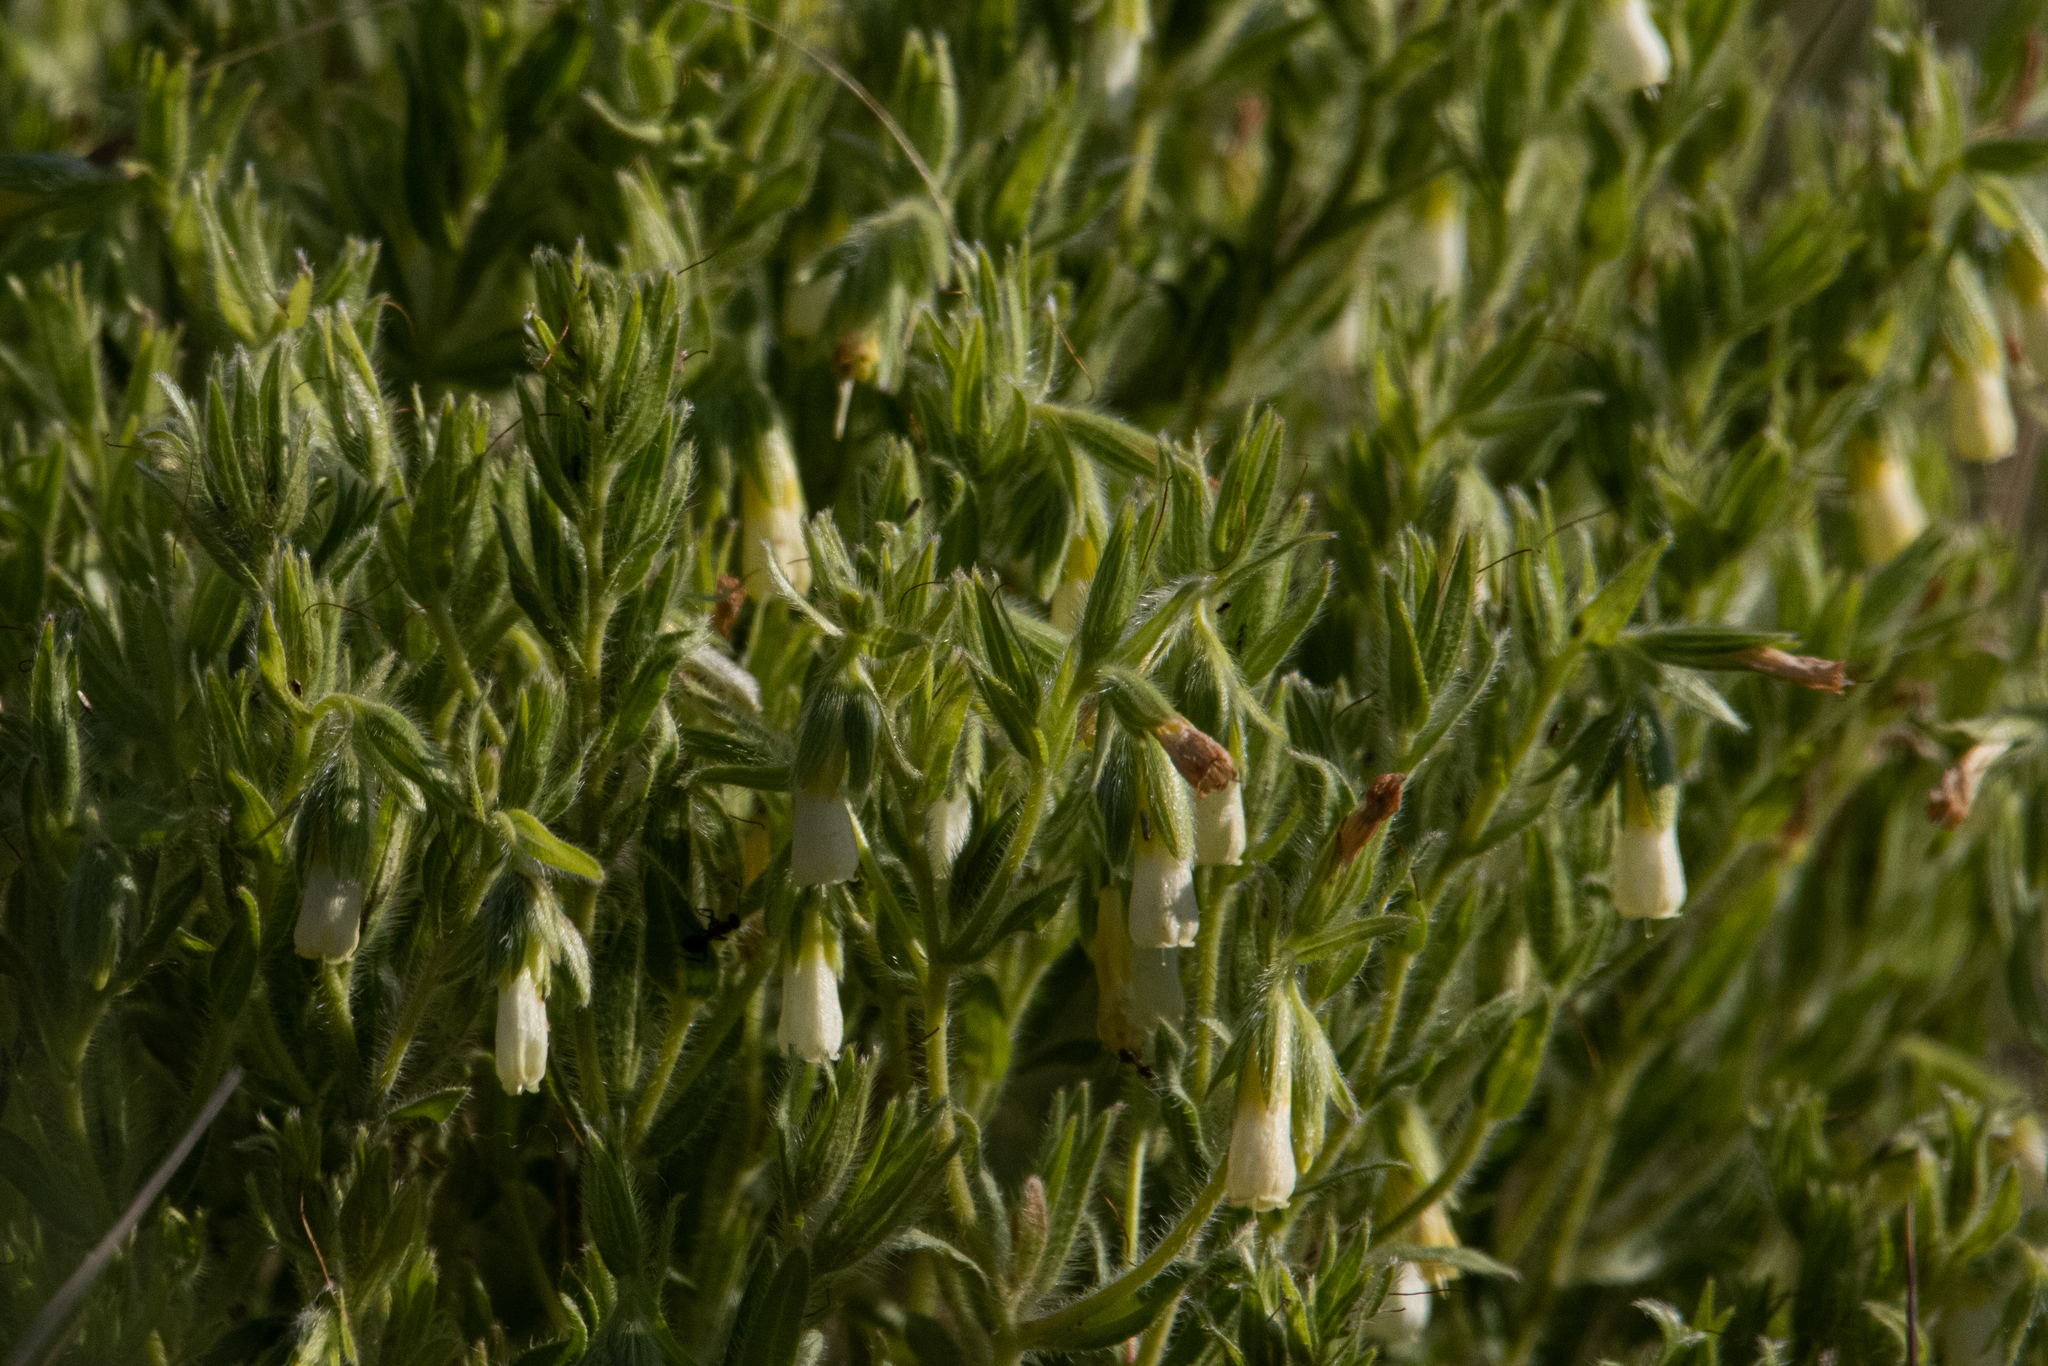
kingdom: Plantae
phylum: Tracheophyta
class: Magnoliopsida
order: Boraginales
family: Boraginaceae
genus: Onosma
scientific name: Onosma simplicissima
